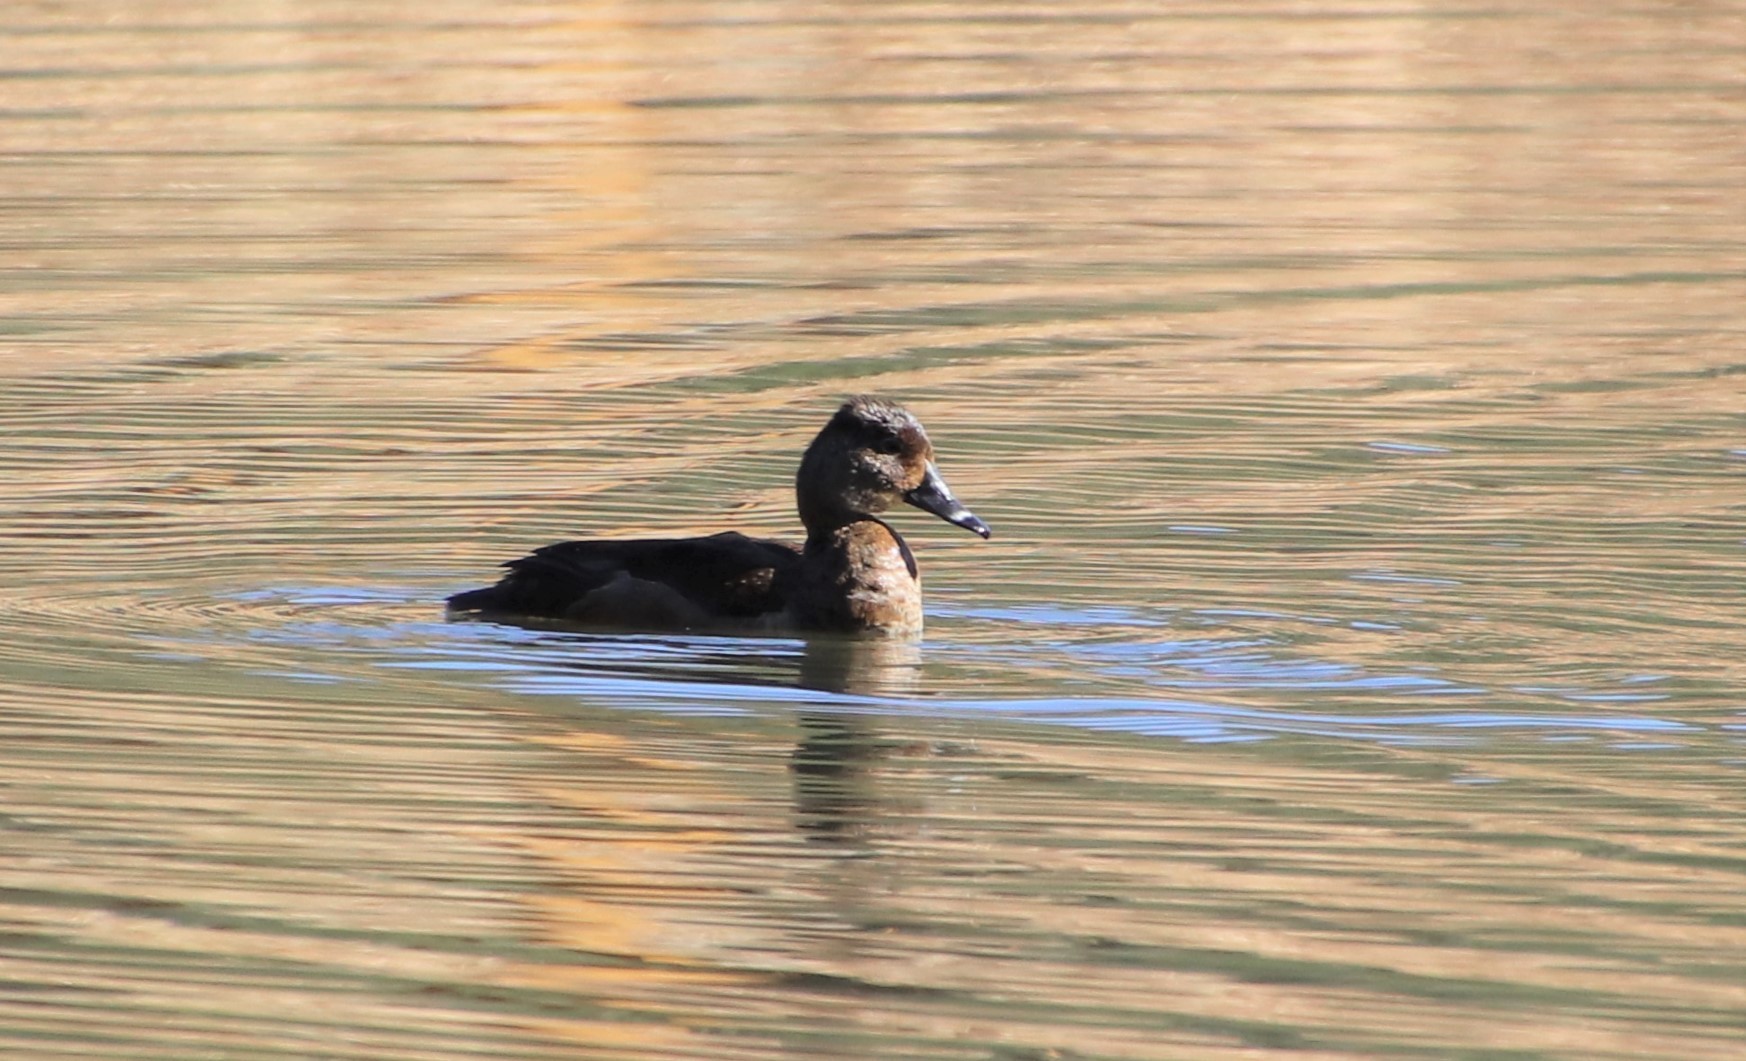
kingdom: Animalia
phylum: Chordata
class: Aves
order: Anseriformes
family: Anatidae
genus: Aythya
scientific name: Aythya collaris
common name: Ring-necked duck
